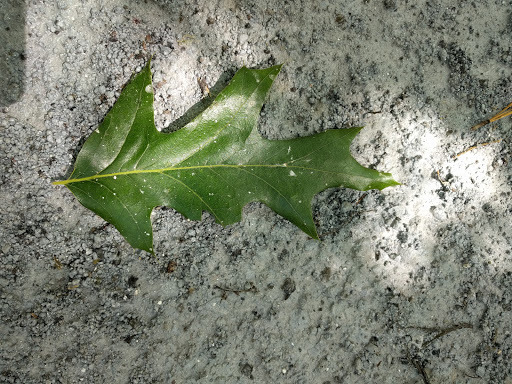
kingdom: Plantae
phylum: Tracheophyta
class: Magnoliopsida
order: Fagales
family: Fagaceae
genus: Quercus
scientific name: Quercus pagoda
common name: Cherrybark oak
